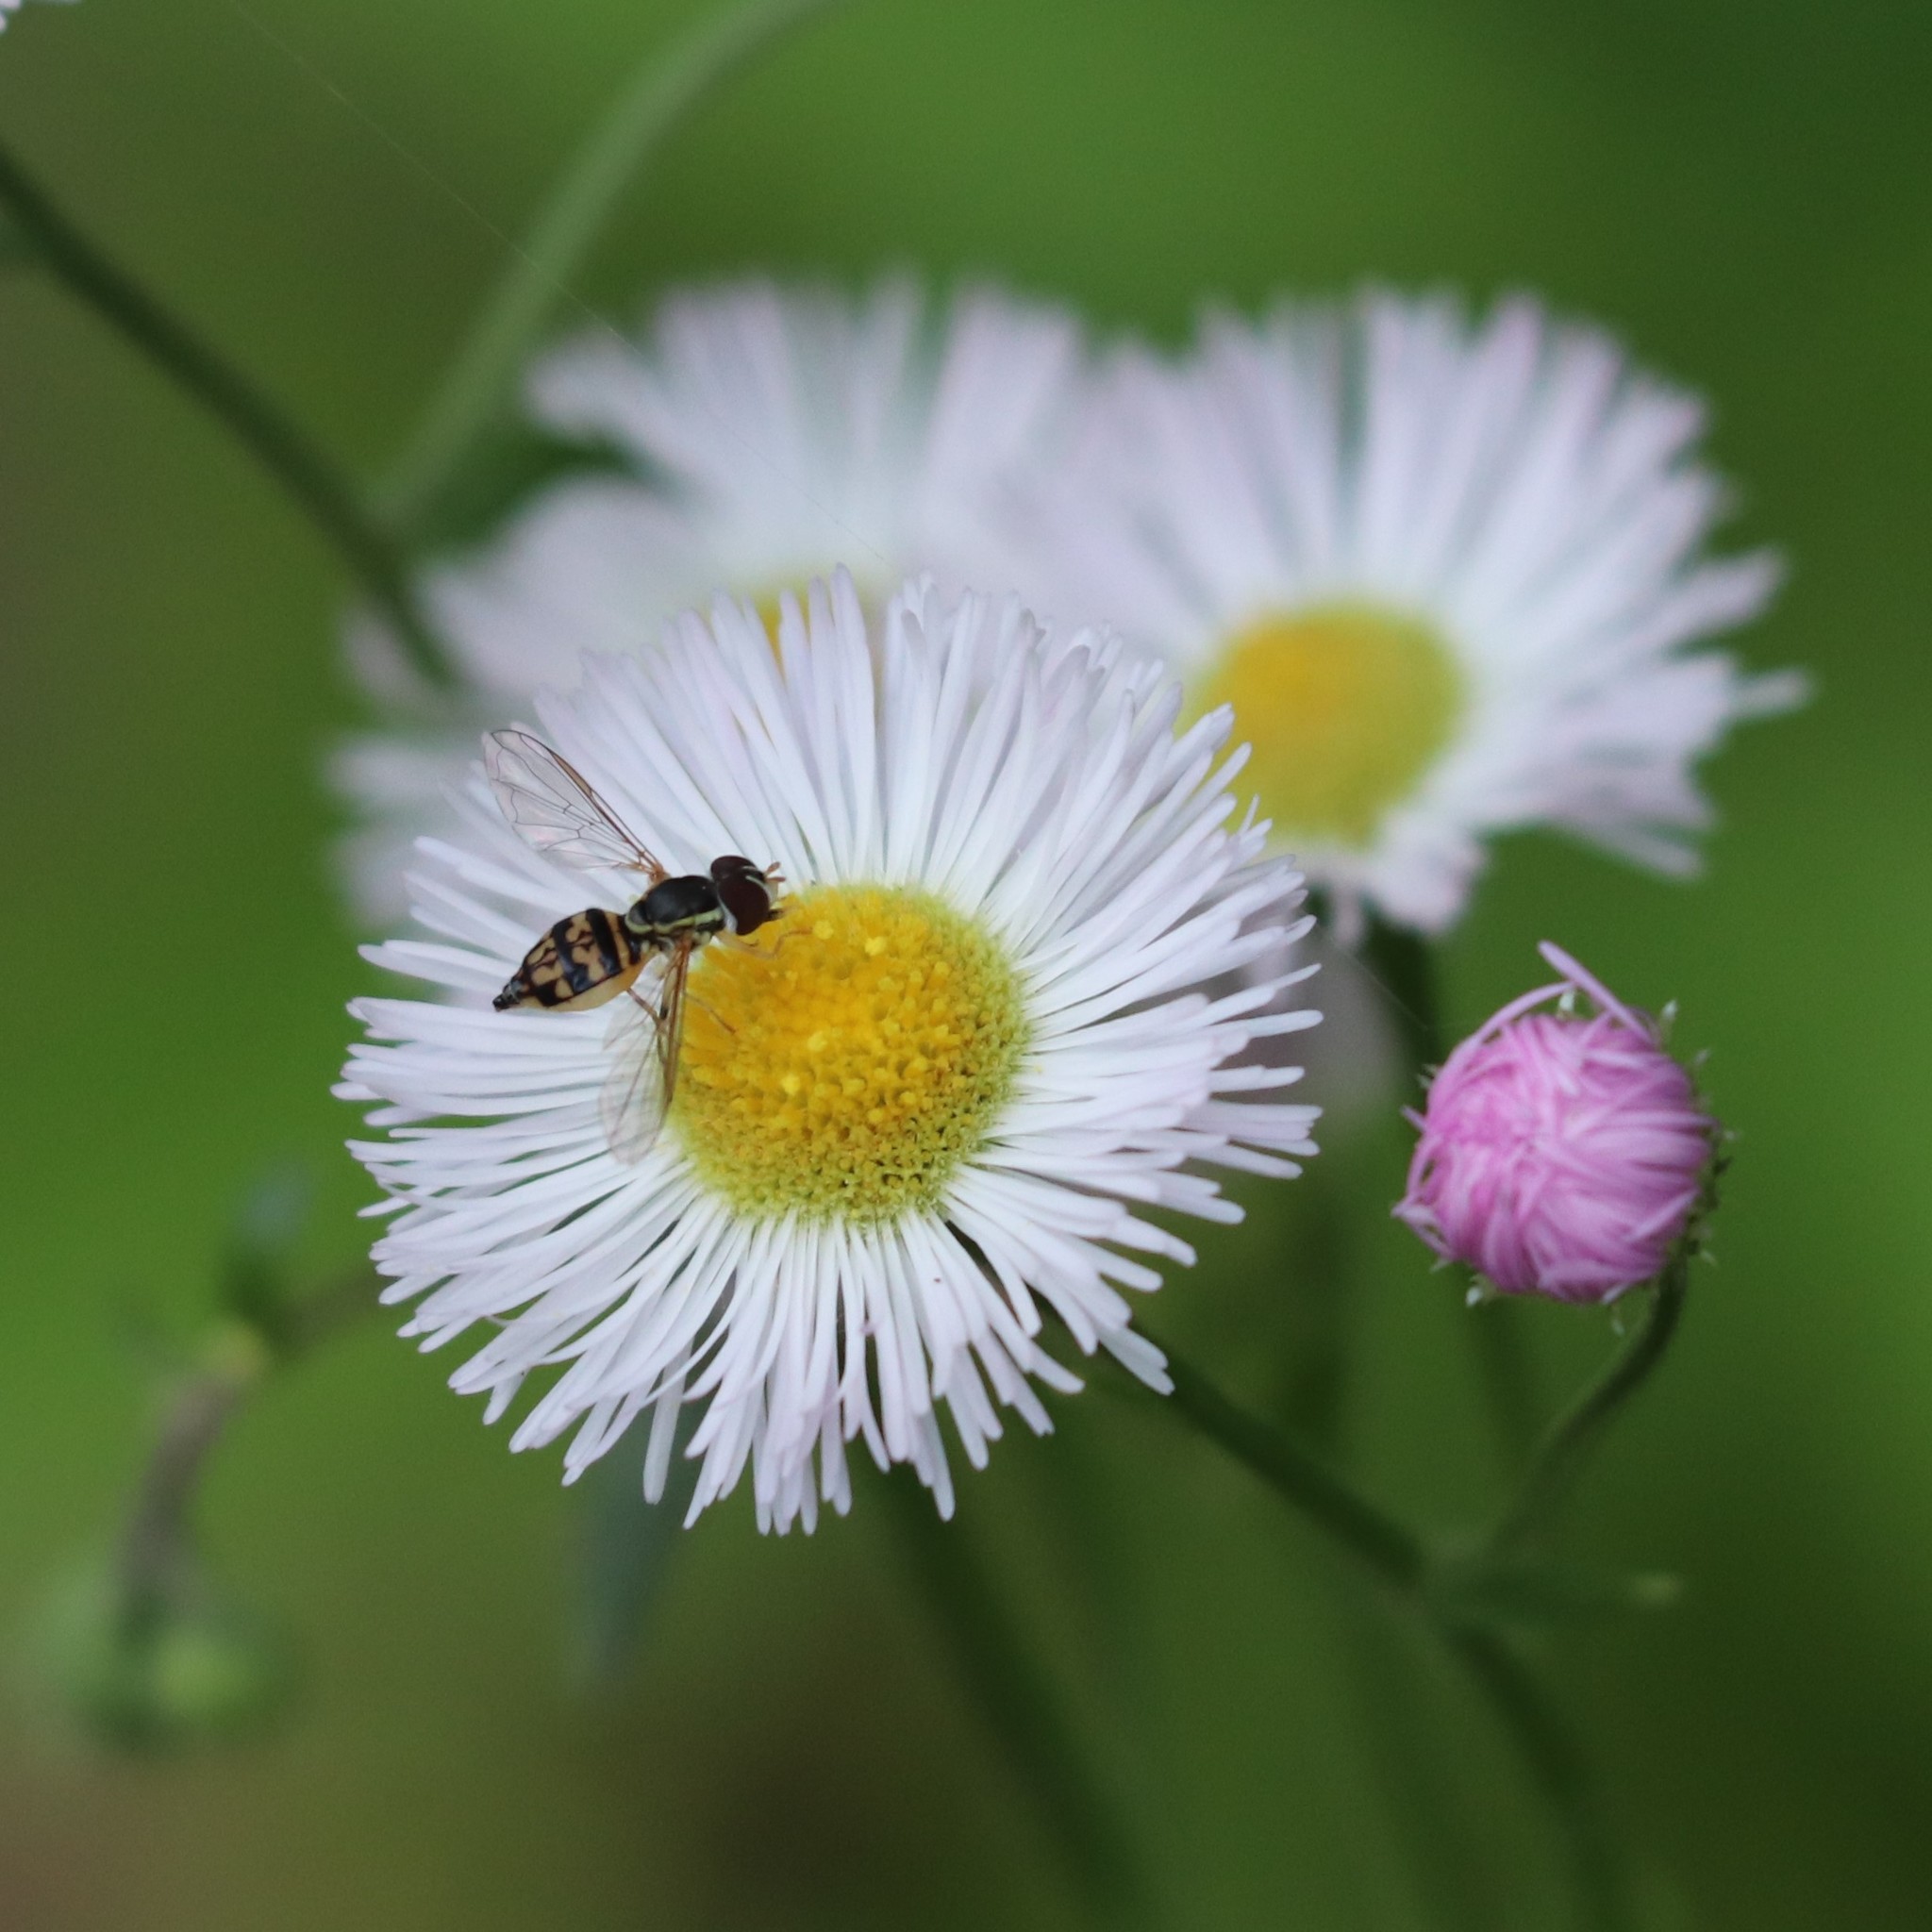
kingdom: Animalia
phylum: Arthropoda
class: Insecta
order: Diptera
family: Syrphidae
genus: Toxomerus
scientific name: Toxomerus geminatus
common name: Eastern calligrapher
